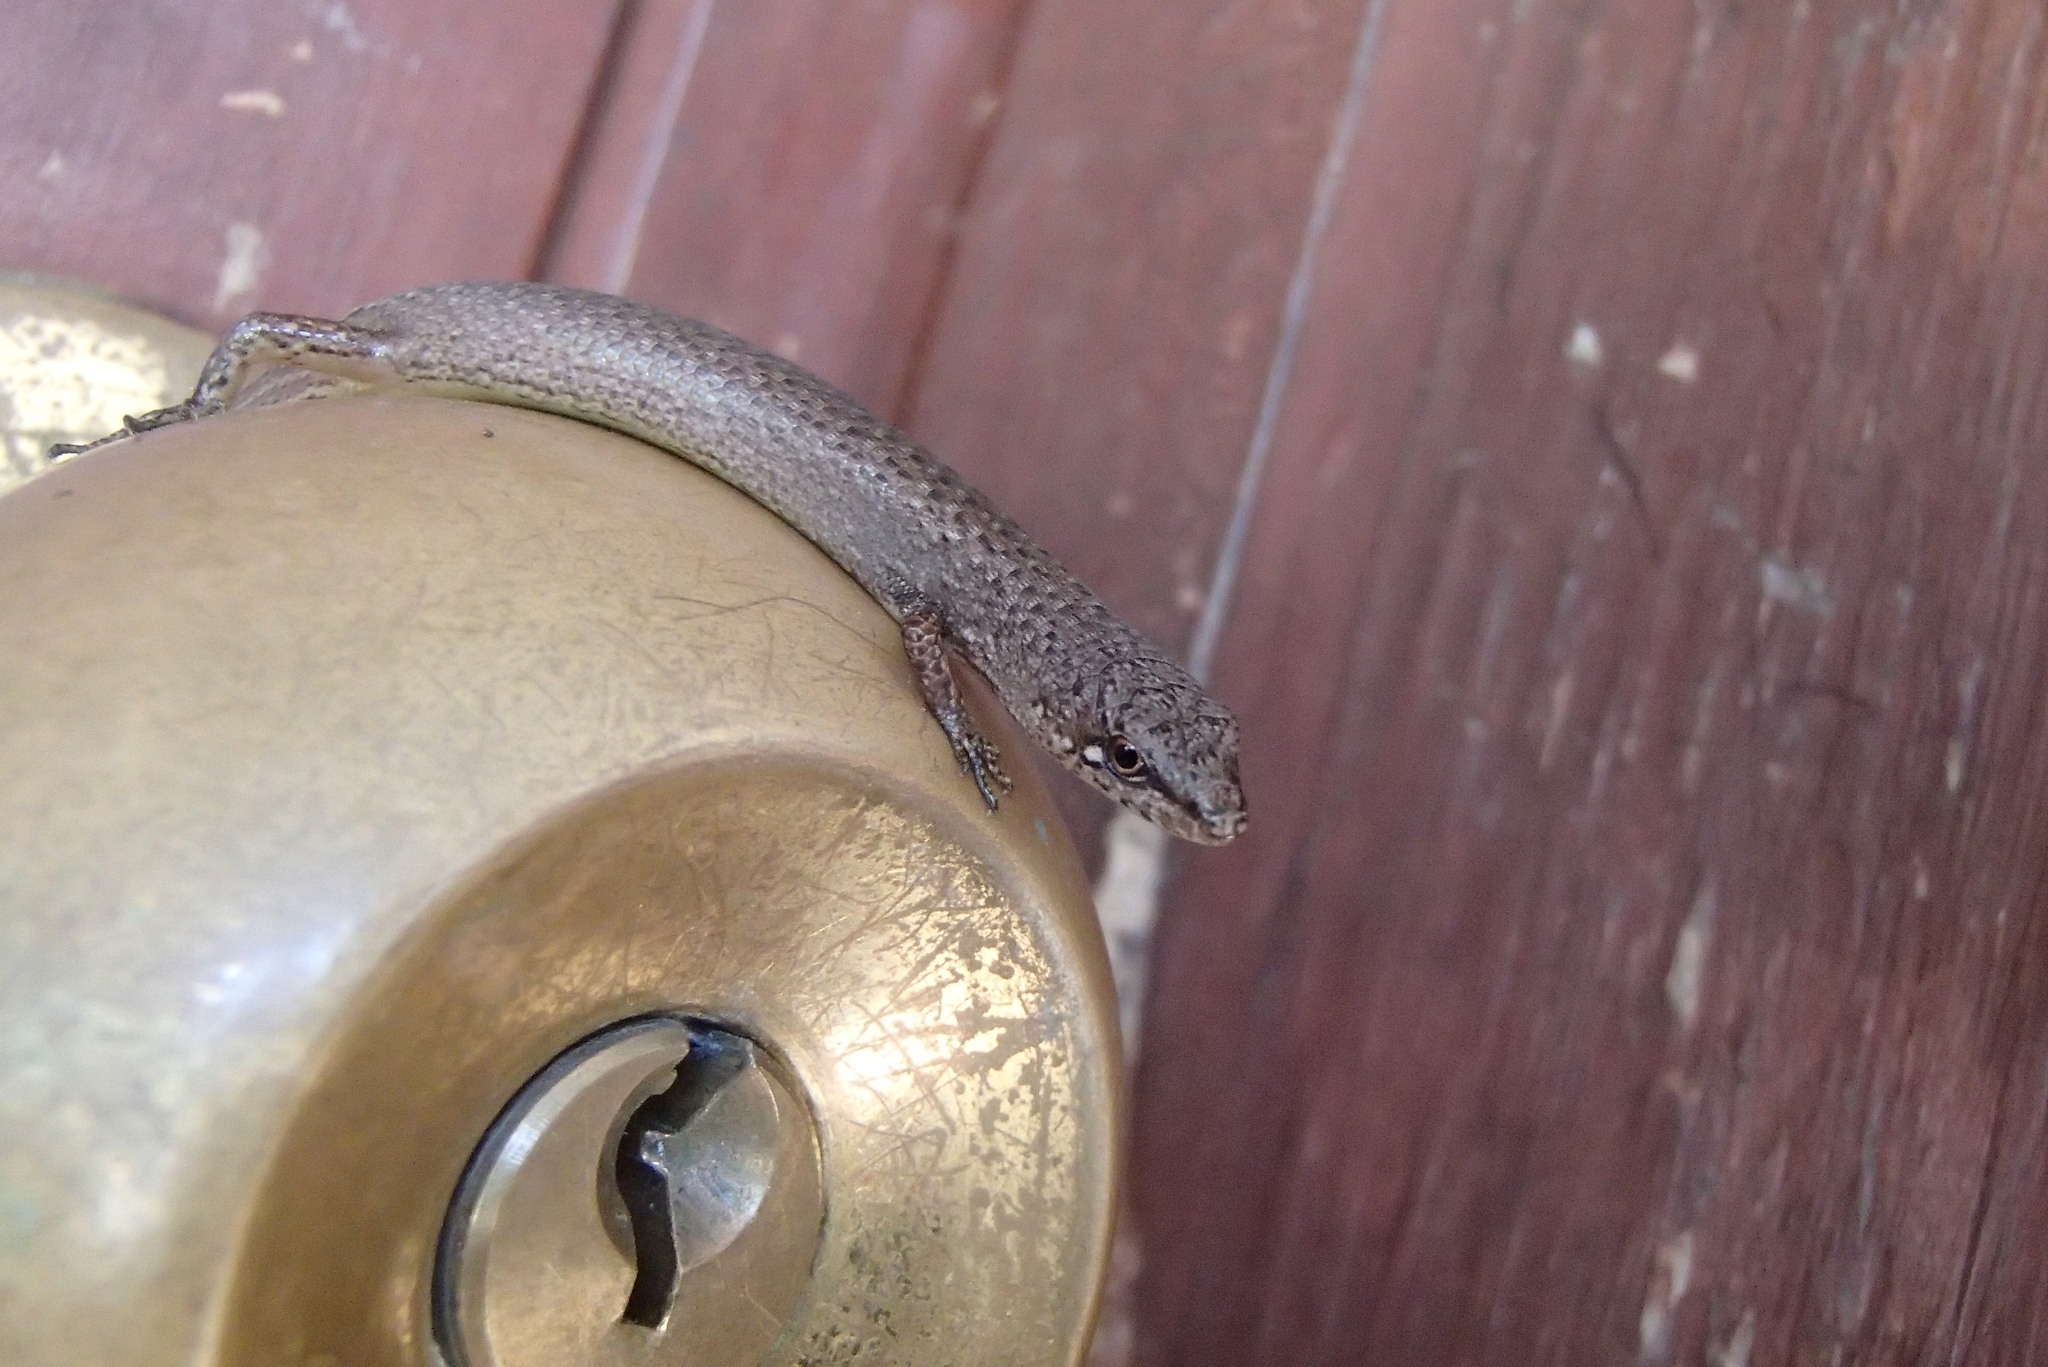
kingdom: Animalia
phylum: Chordata
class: Squamata
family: Scincidae
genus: Saproscincus
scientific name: Saproscincus mustelinus
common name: Southern weasel skink
